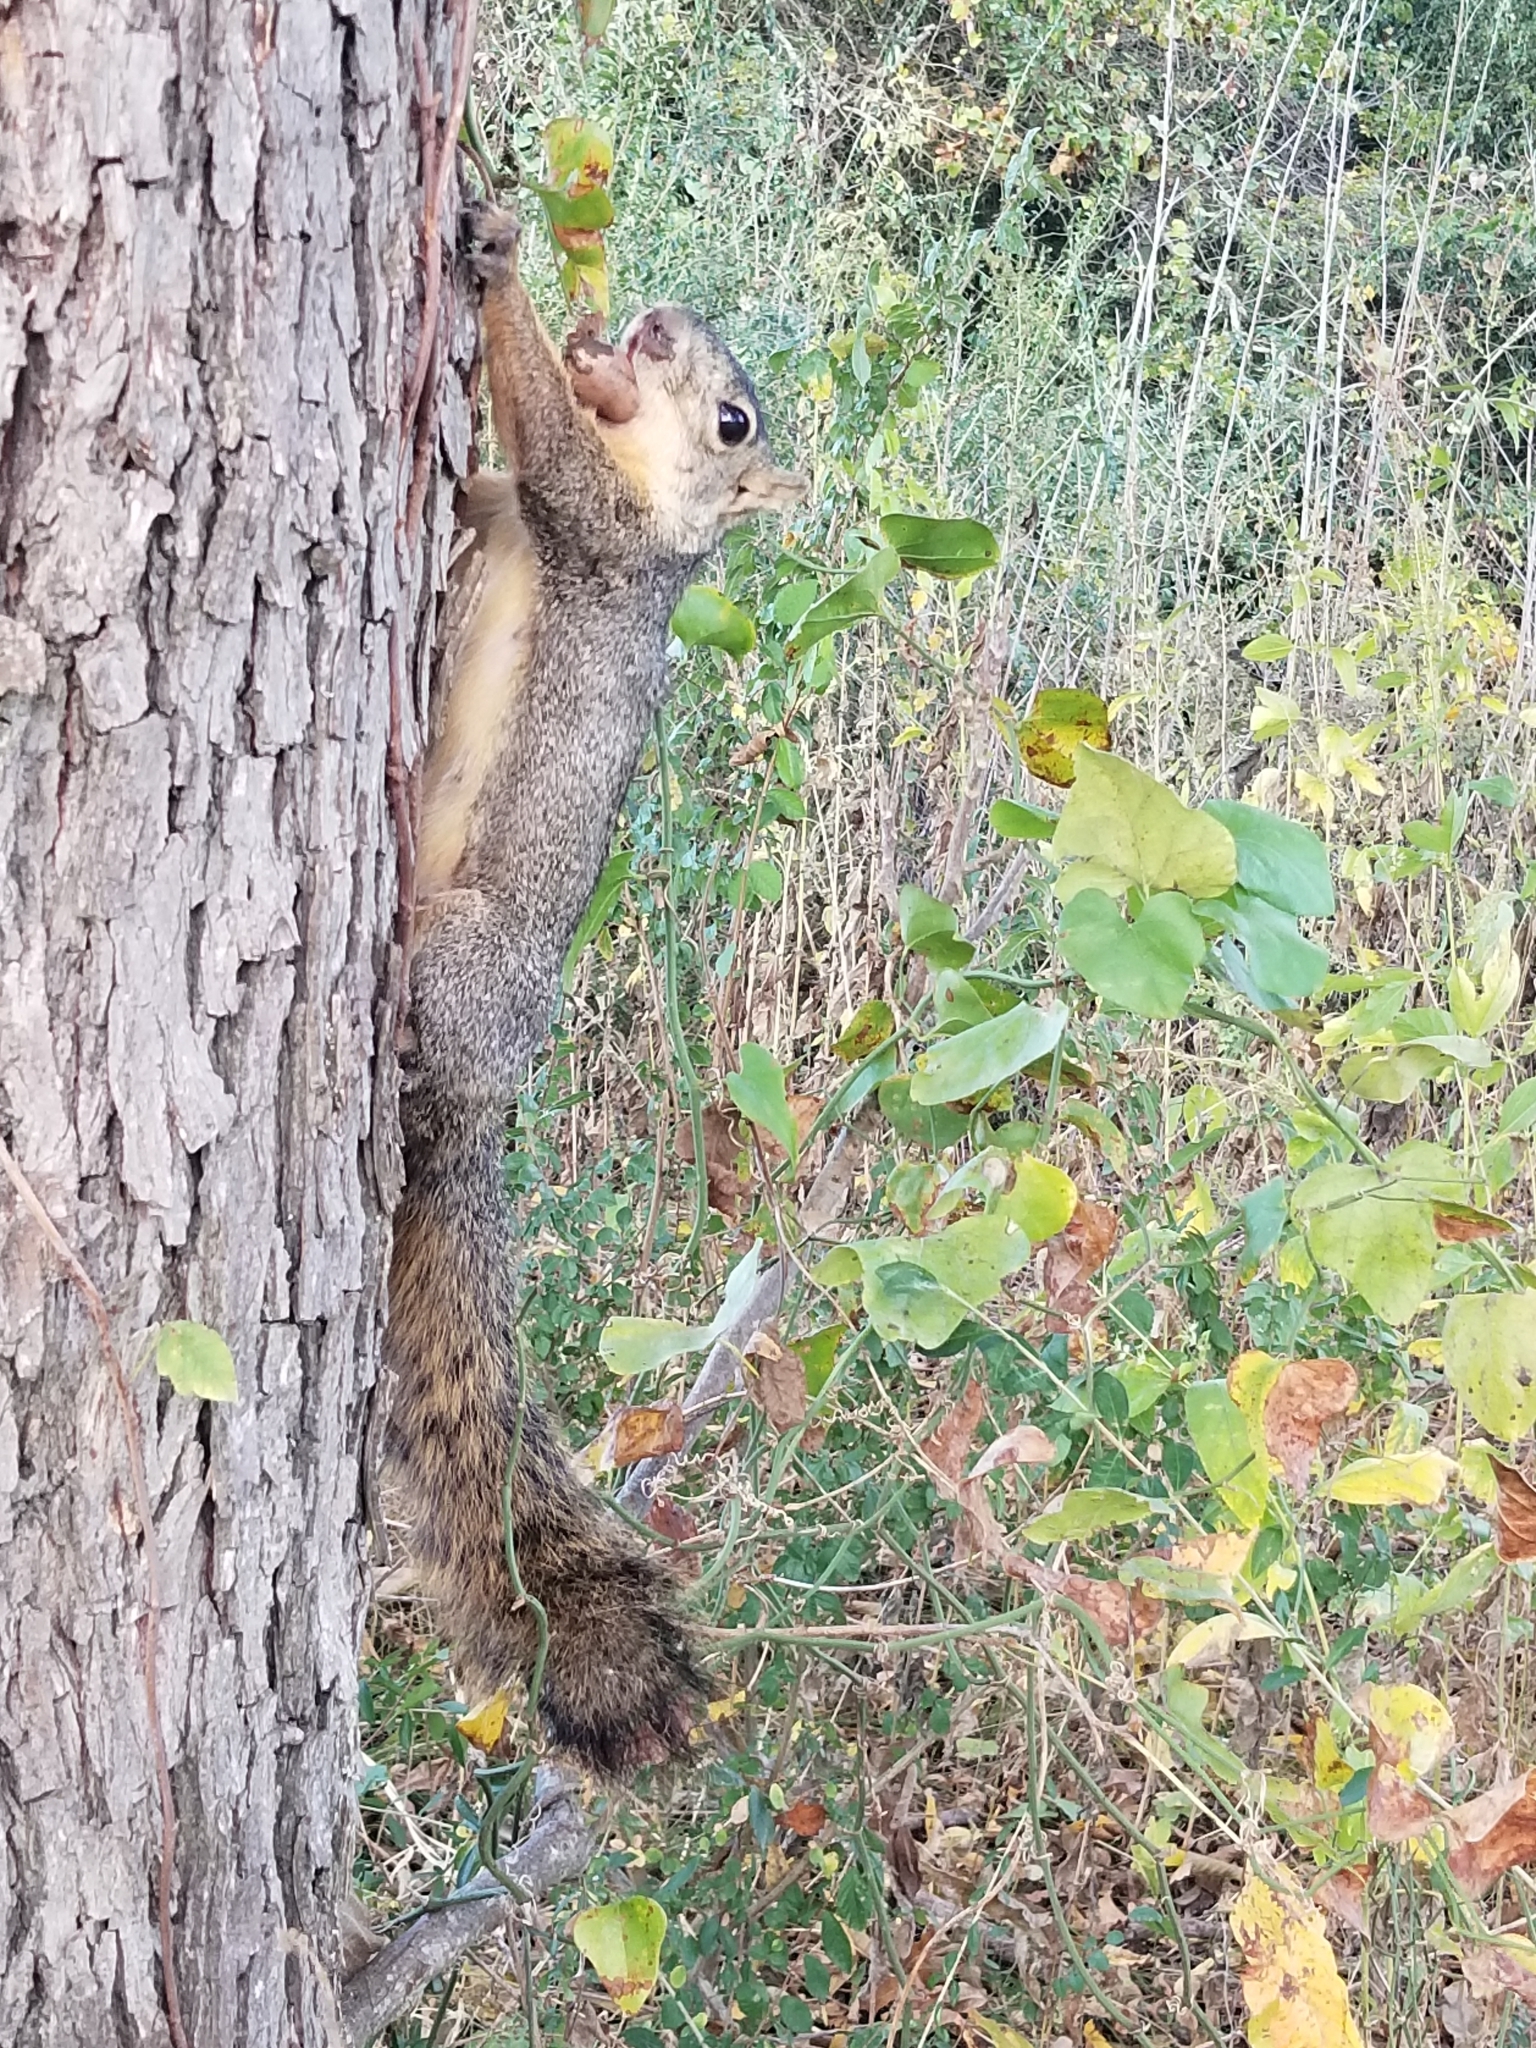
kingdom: Animalia
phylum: Chordata
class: Mammalia
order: Rodentia
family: Sciuridae
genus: Sciurus
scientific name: Sciurus niger
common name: Fox squirrel
